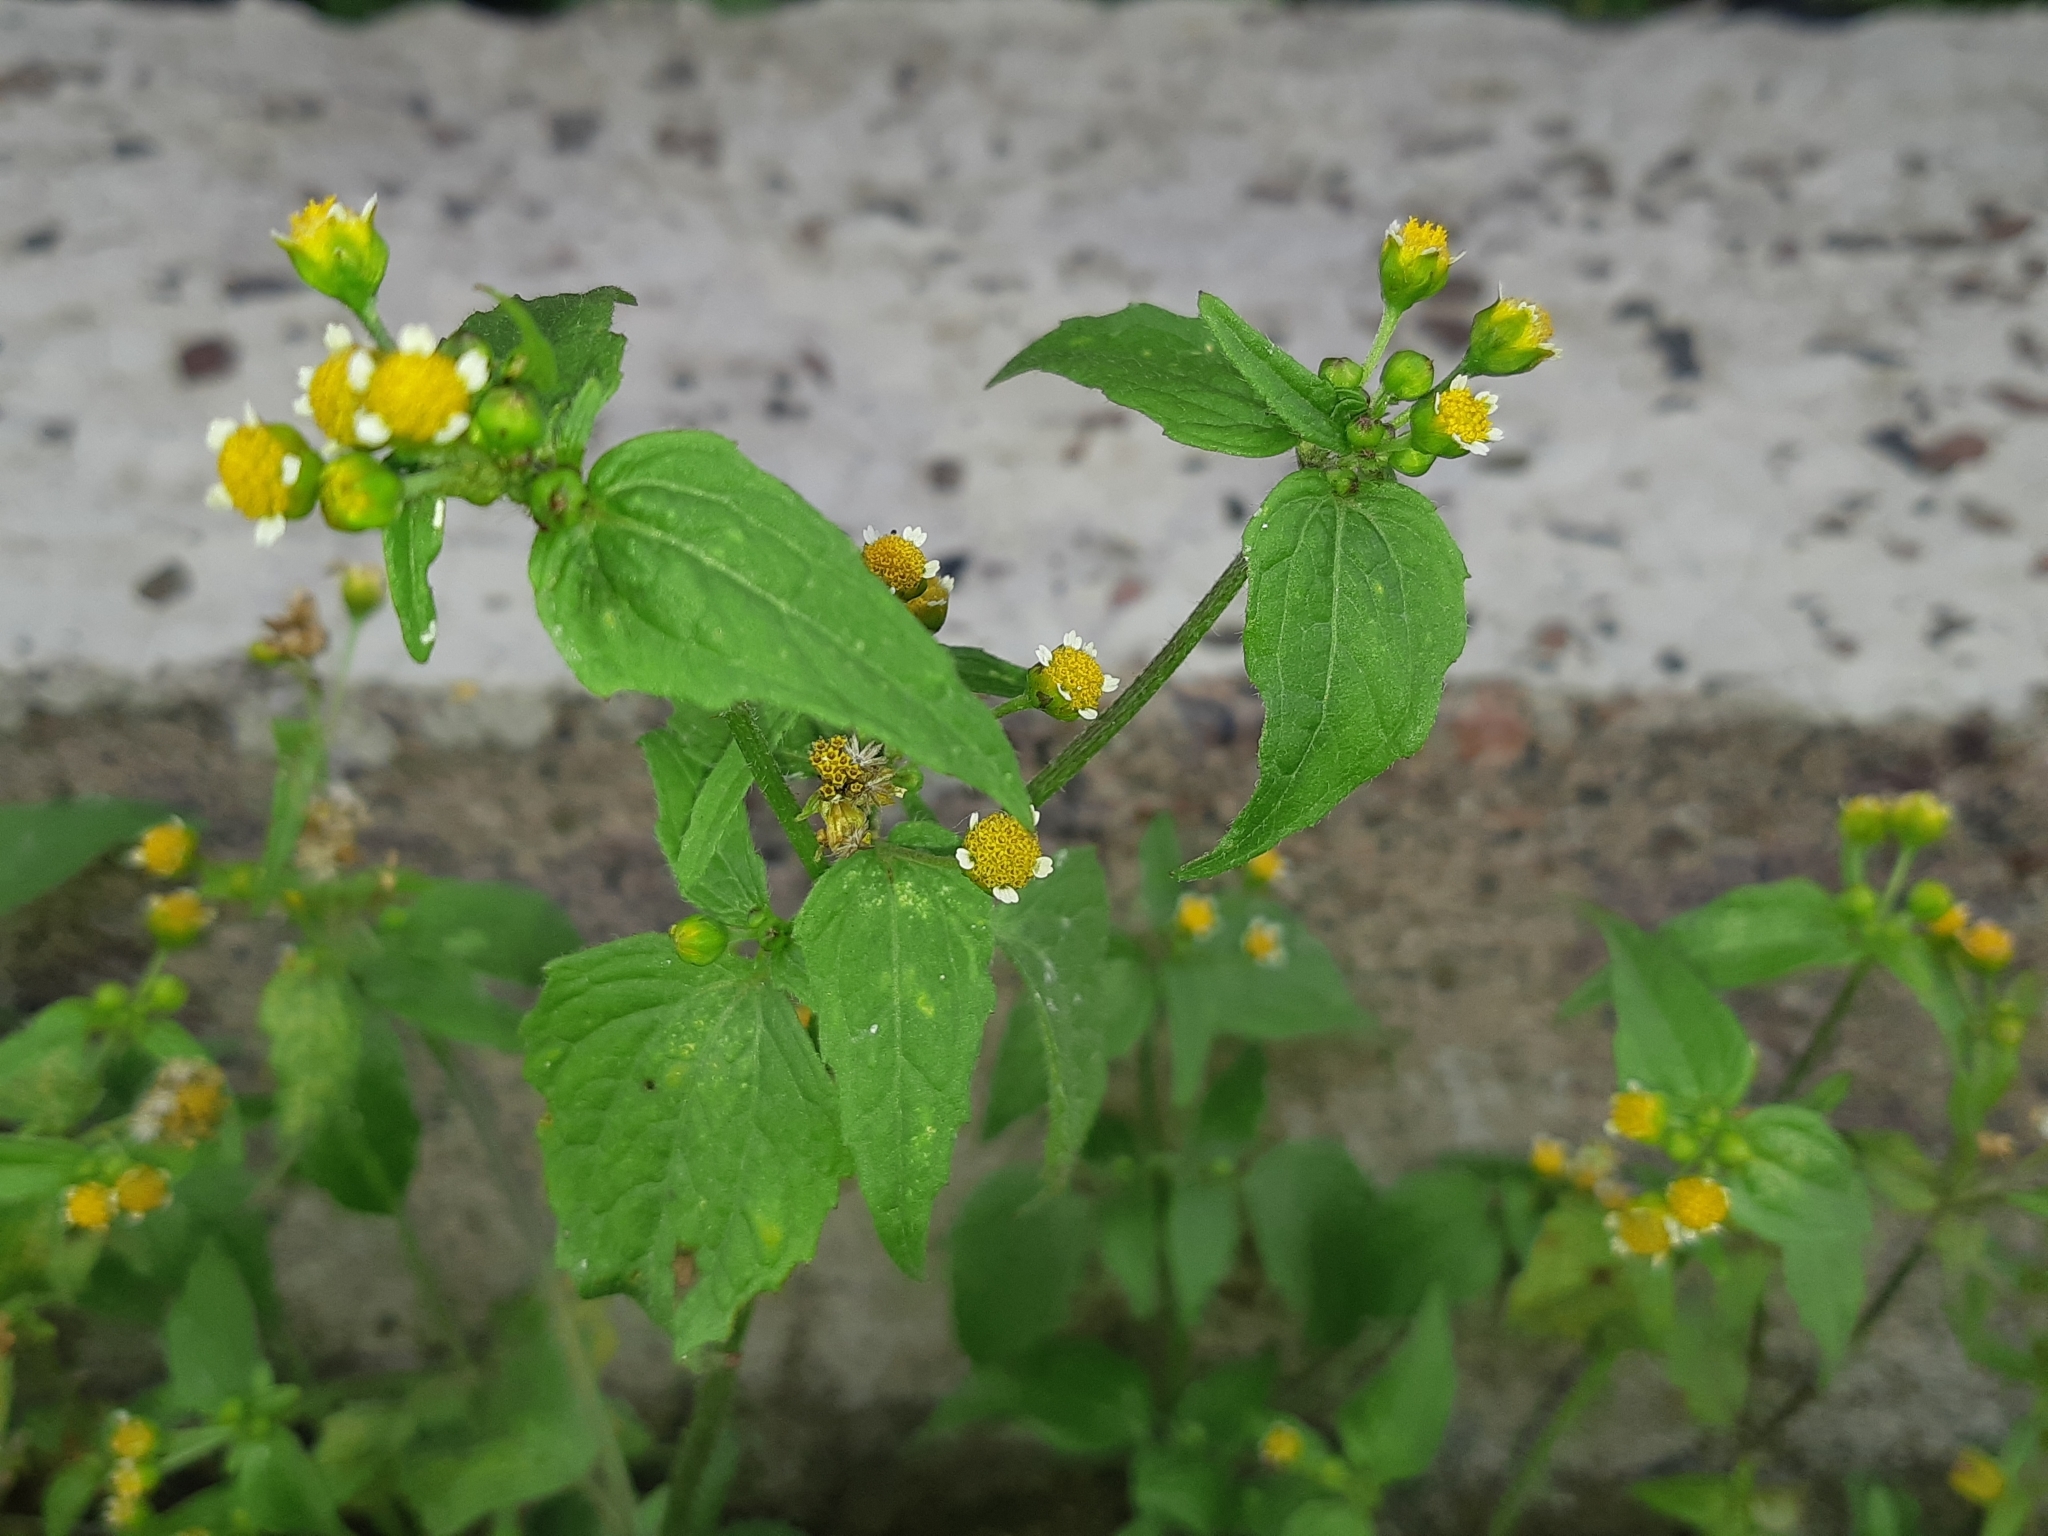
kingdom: Plantae
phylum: Tracheophyta
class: Magnoliopsida
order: Asterales
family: Asteraceae
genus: Galinsoga
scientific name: Galinsoga parviflora
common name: Gallant soldier
